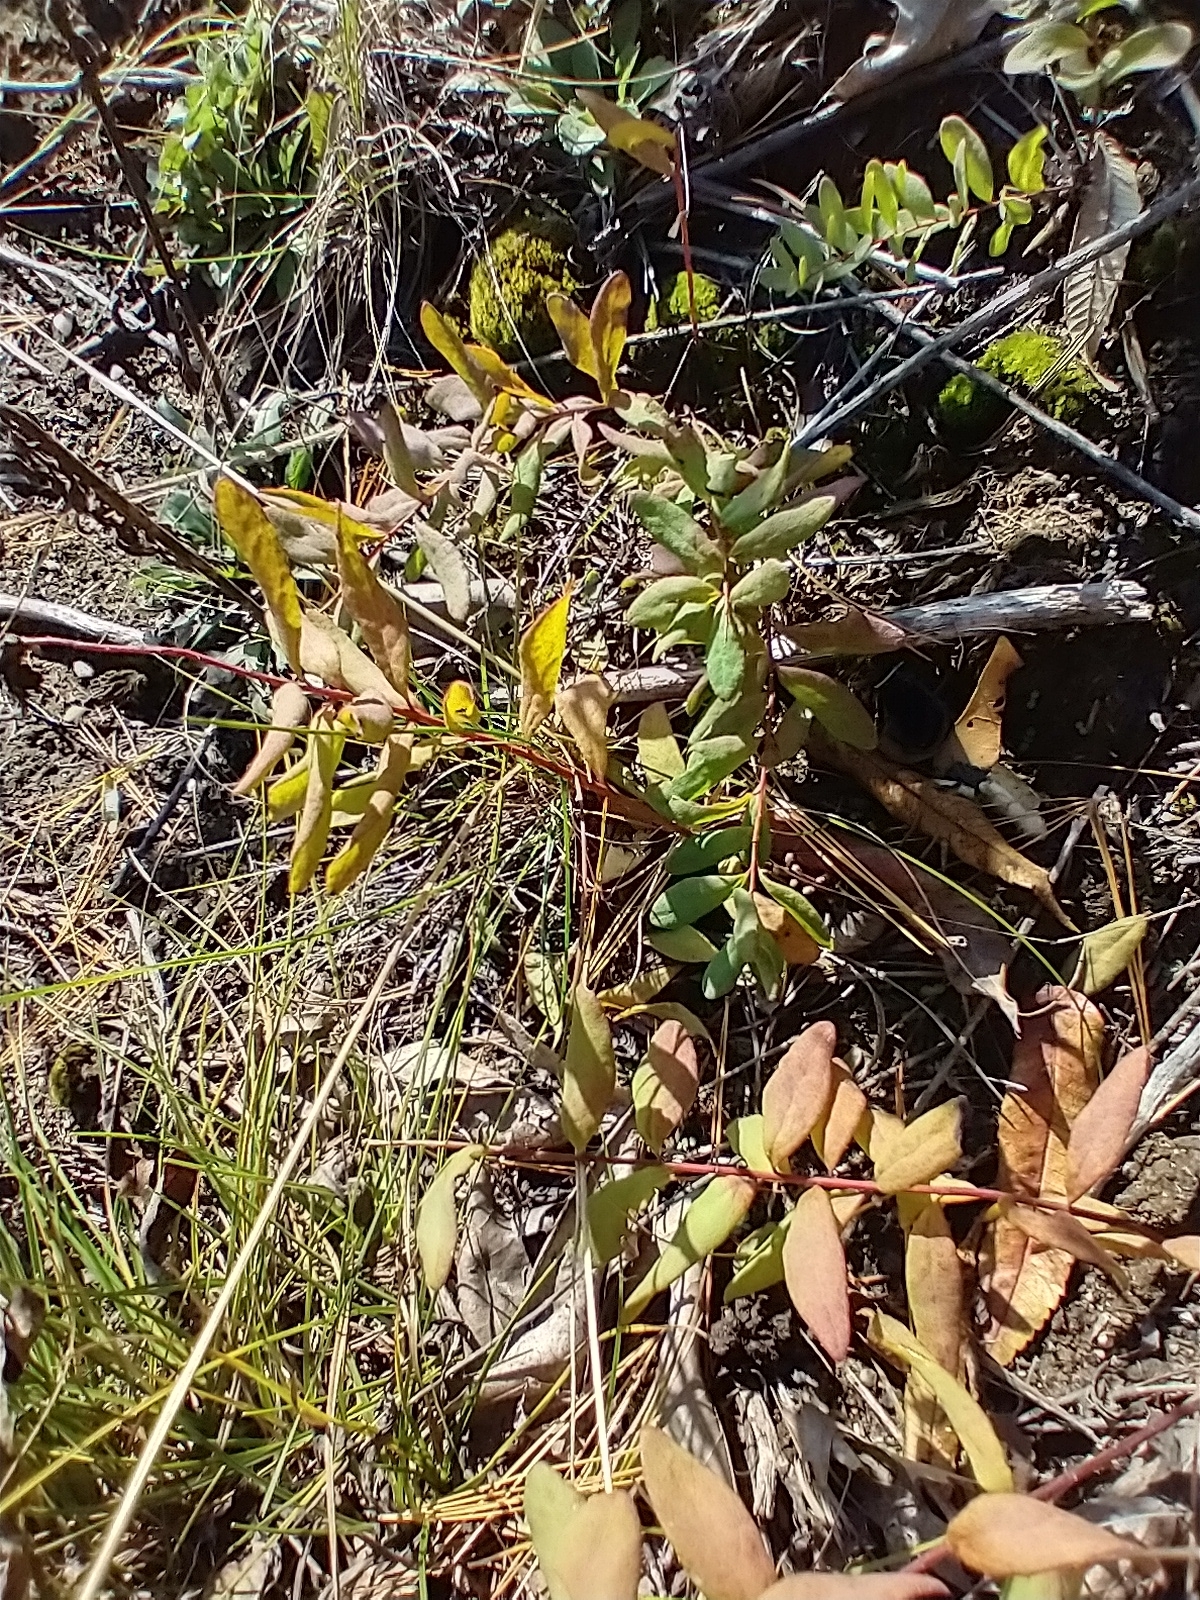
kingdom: Plantae
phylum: Tracheophyta
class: Magnoliopsida
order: Santalales
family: Comandraceae
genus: Comandra
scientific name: Comandra umbellata
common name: Bastard toadflax
